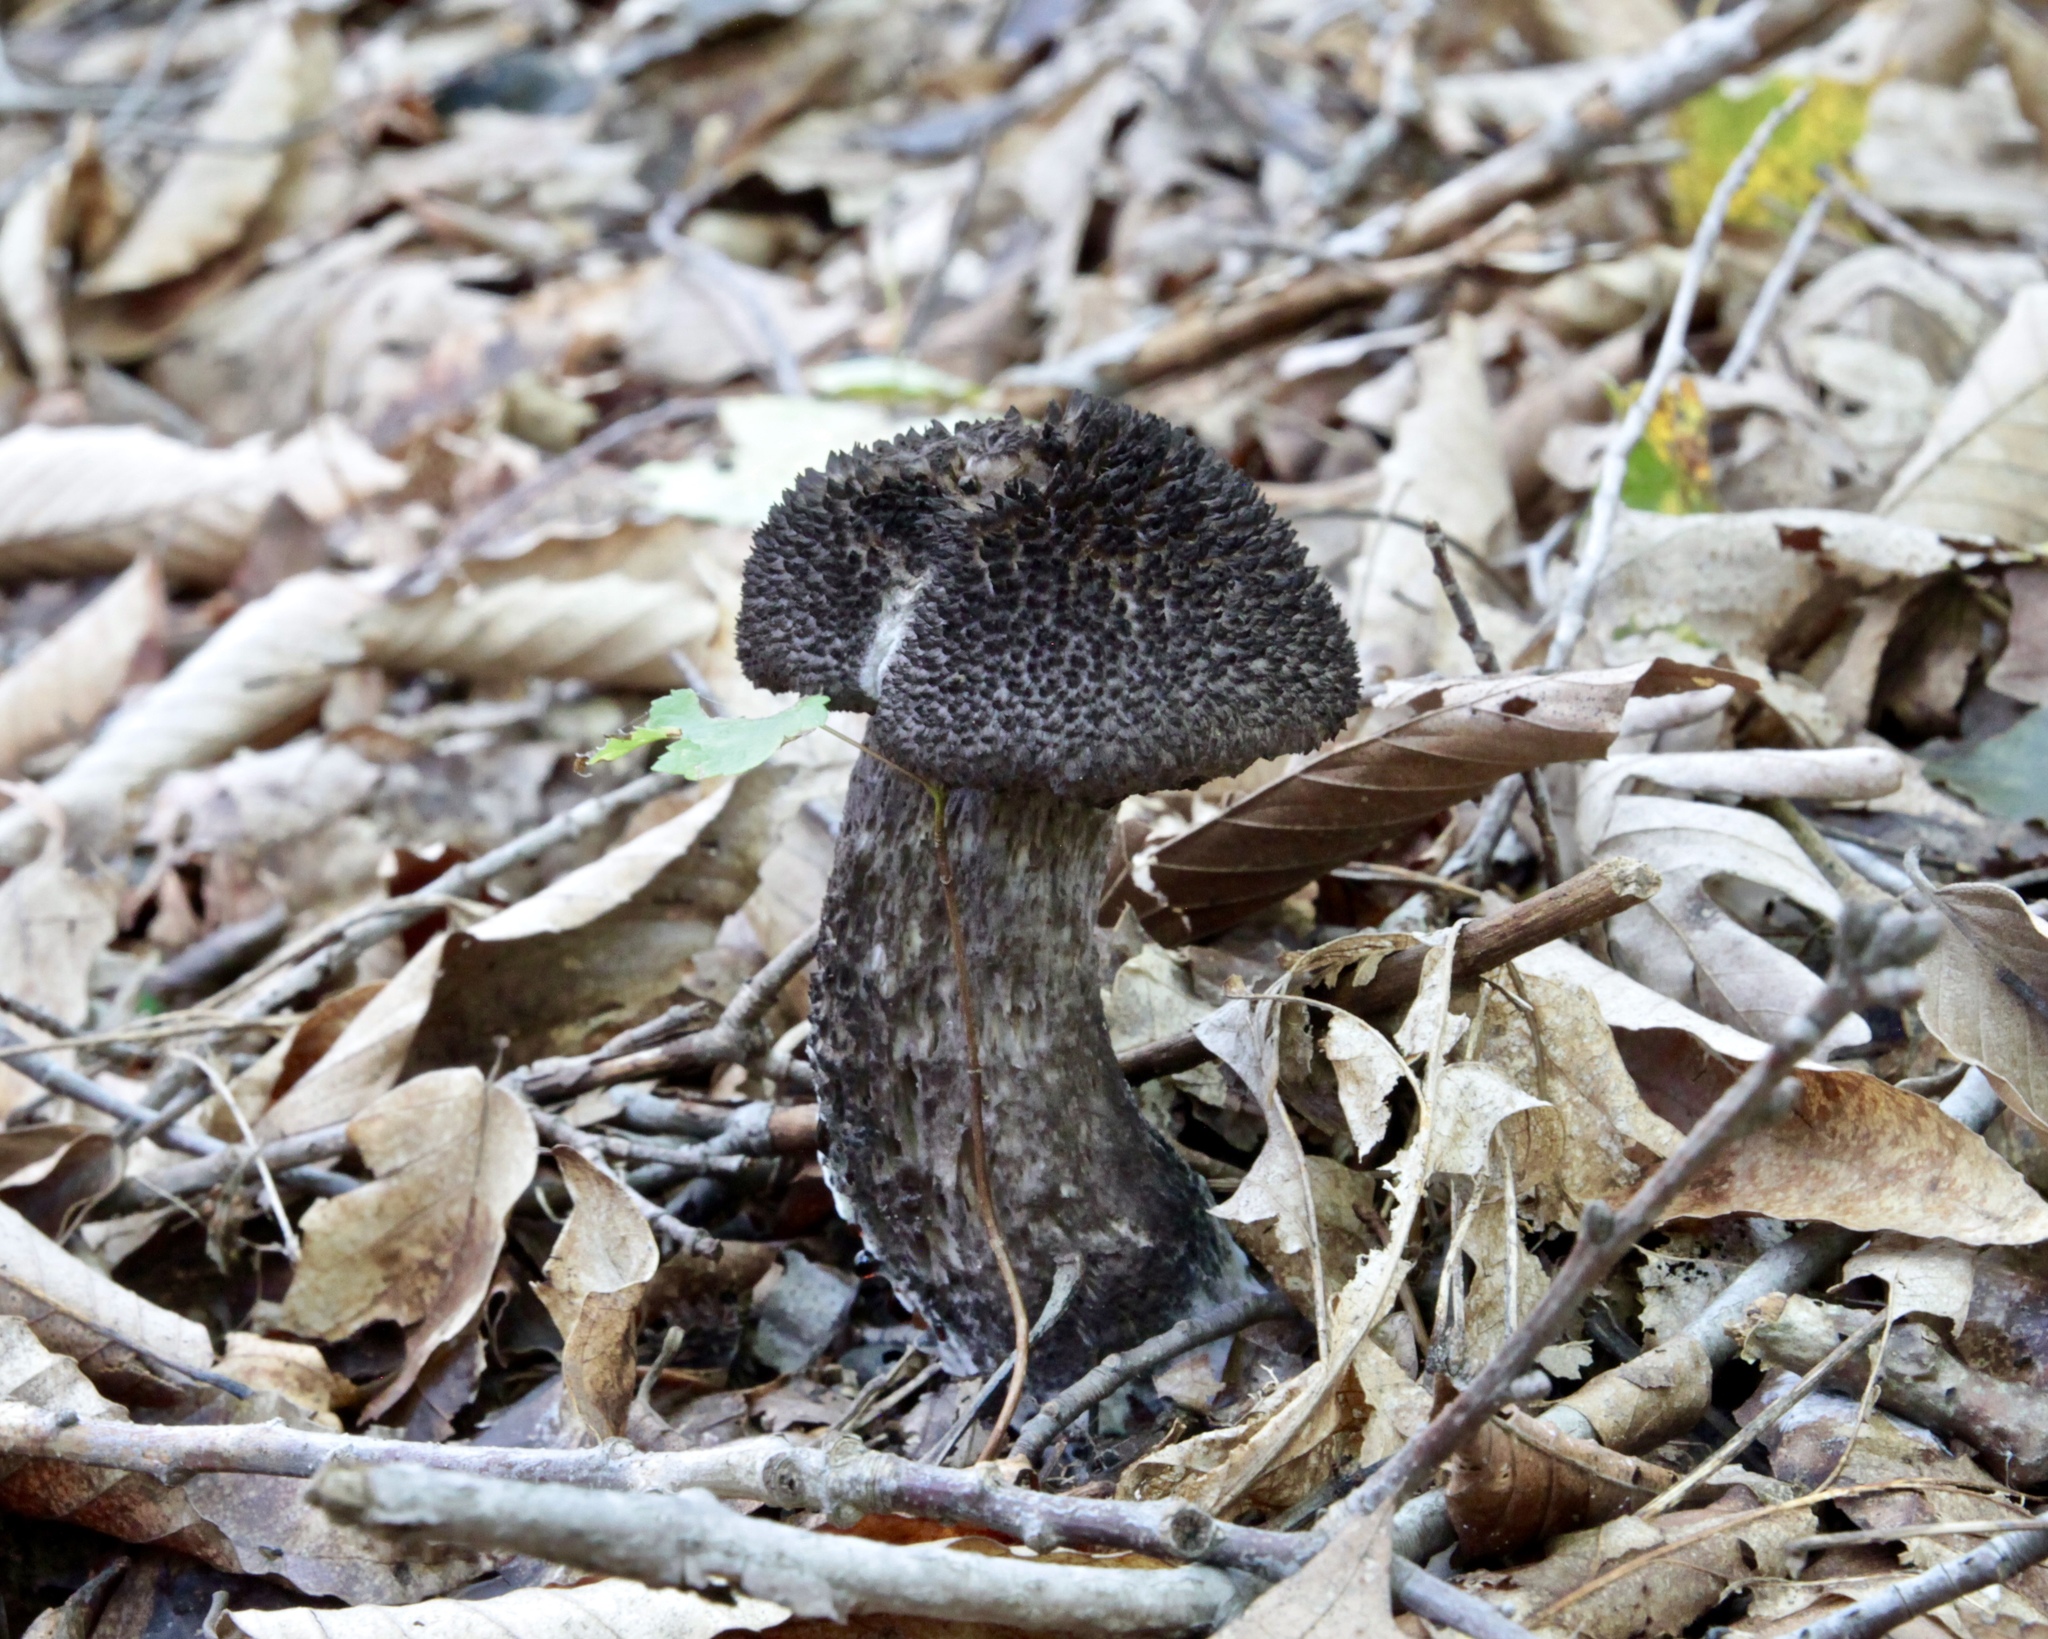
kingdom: Fungi
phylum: Basidiomycota
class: Agaricomycetes
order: Boletales
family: Boletaceae
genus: Strobilomyces
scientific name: Strobilomyces strobilaceus
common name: Old man of the woods
